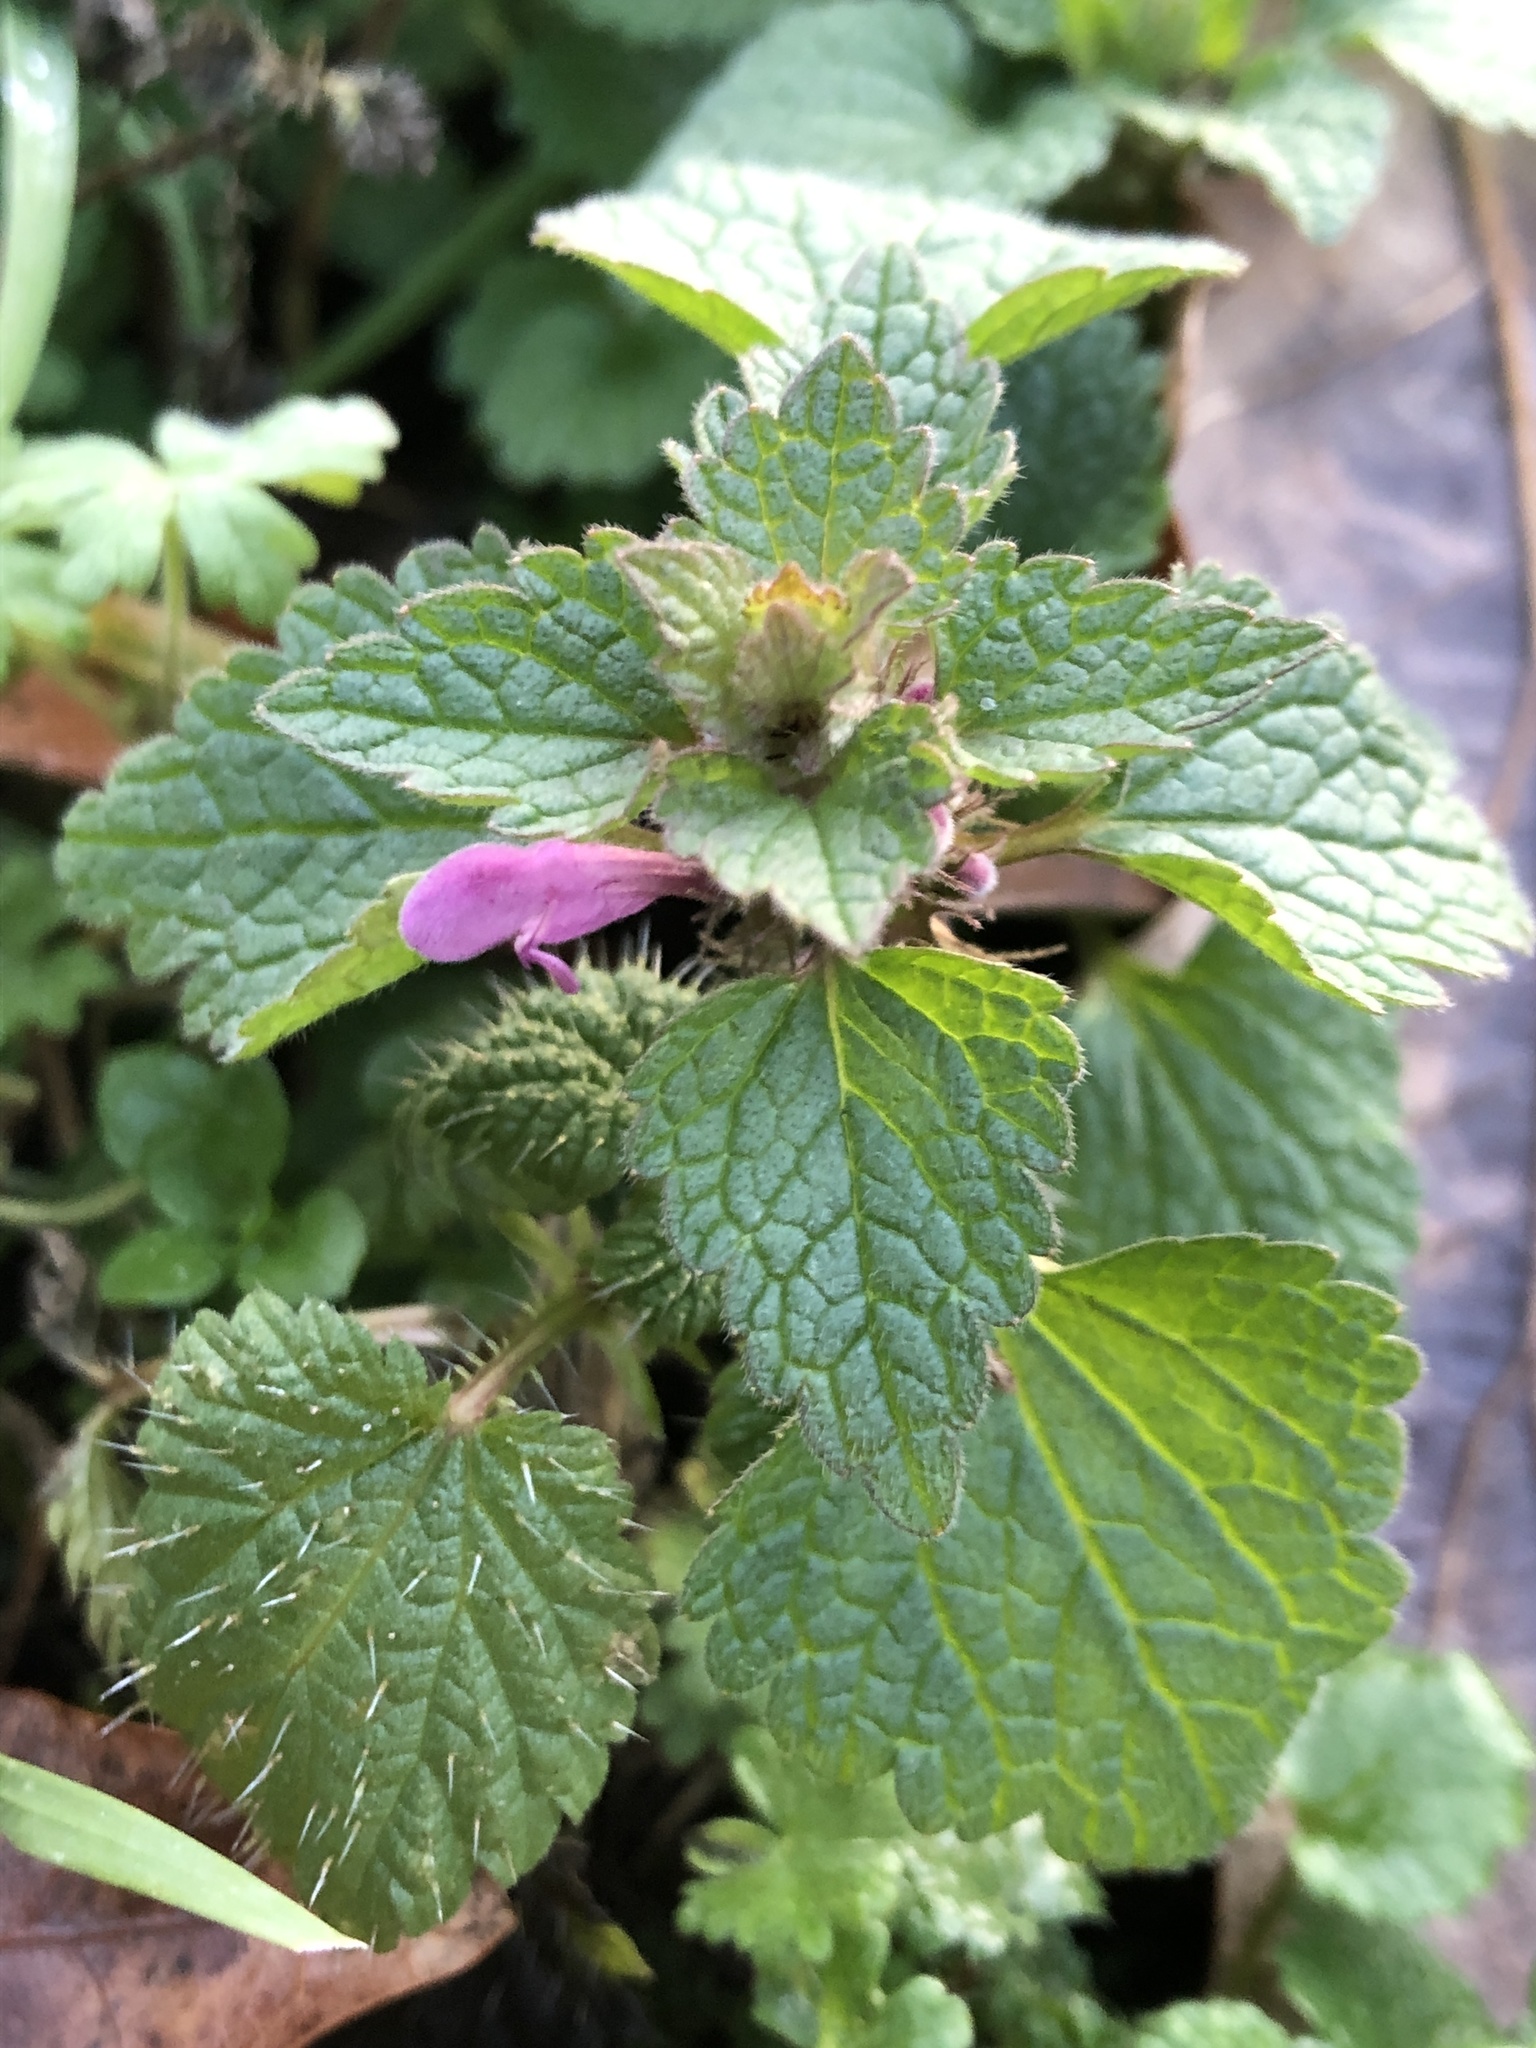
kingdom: Plantae
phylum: Tracheophyta
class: Magnoliopsida
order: Lamiales
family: Lamiaceae
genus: Lamium
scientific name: Lamium purpureum
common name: Red dead-nettle
